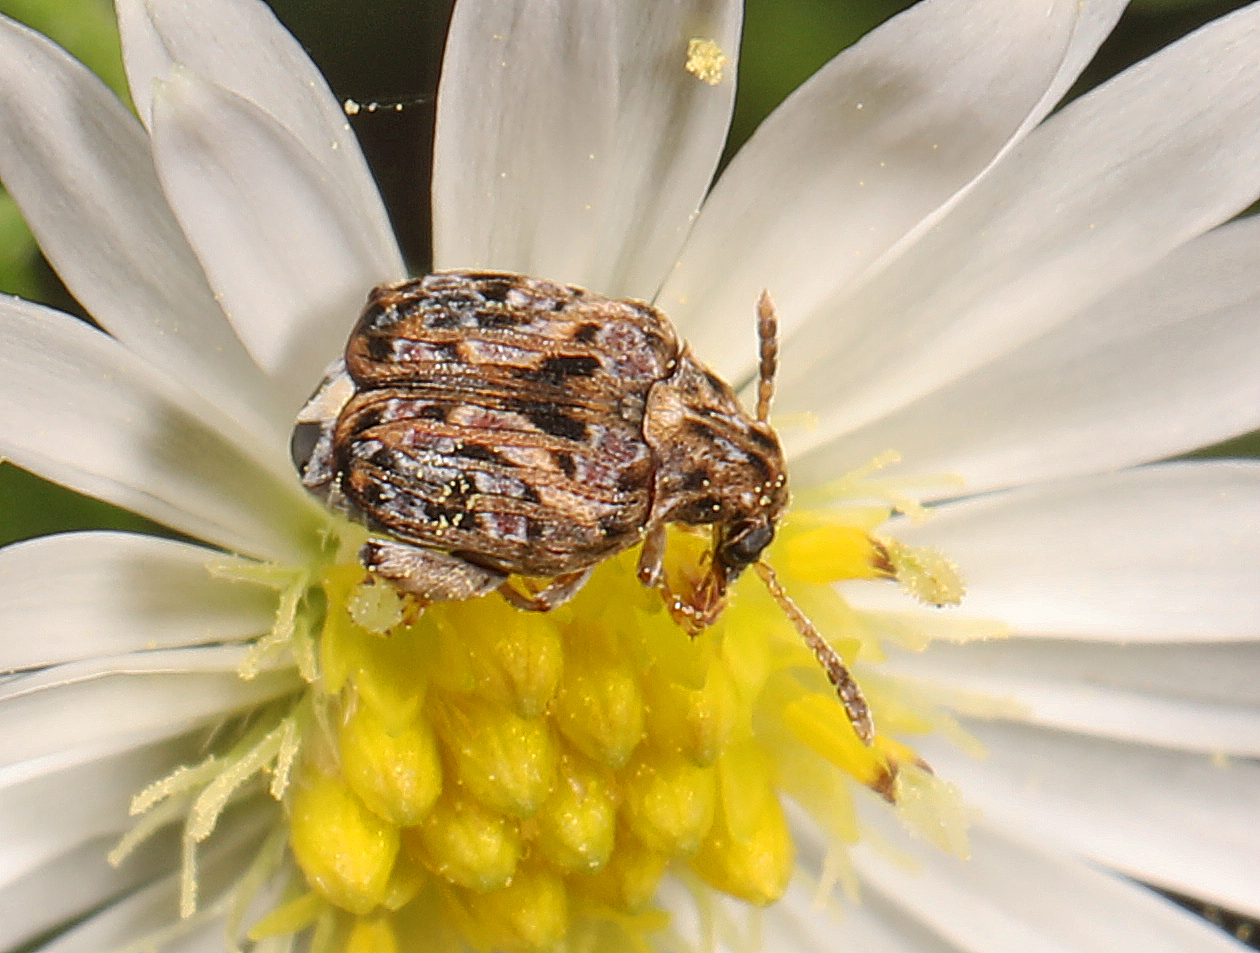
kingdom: Animalia
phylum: Arthropoda
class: Insecta
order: Coleoptera
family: Chrysomelidae
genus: Gibbobruchus
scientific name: Gibbobruchus mimus
